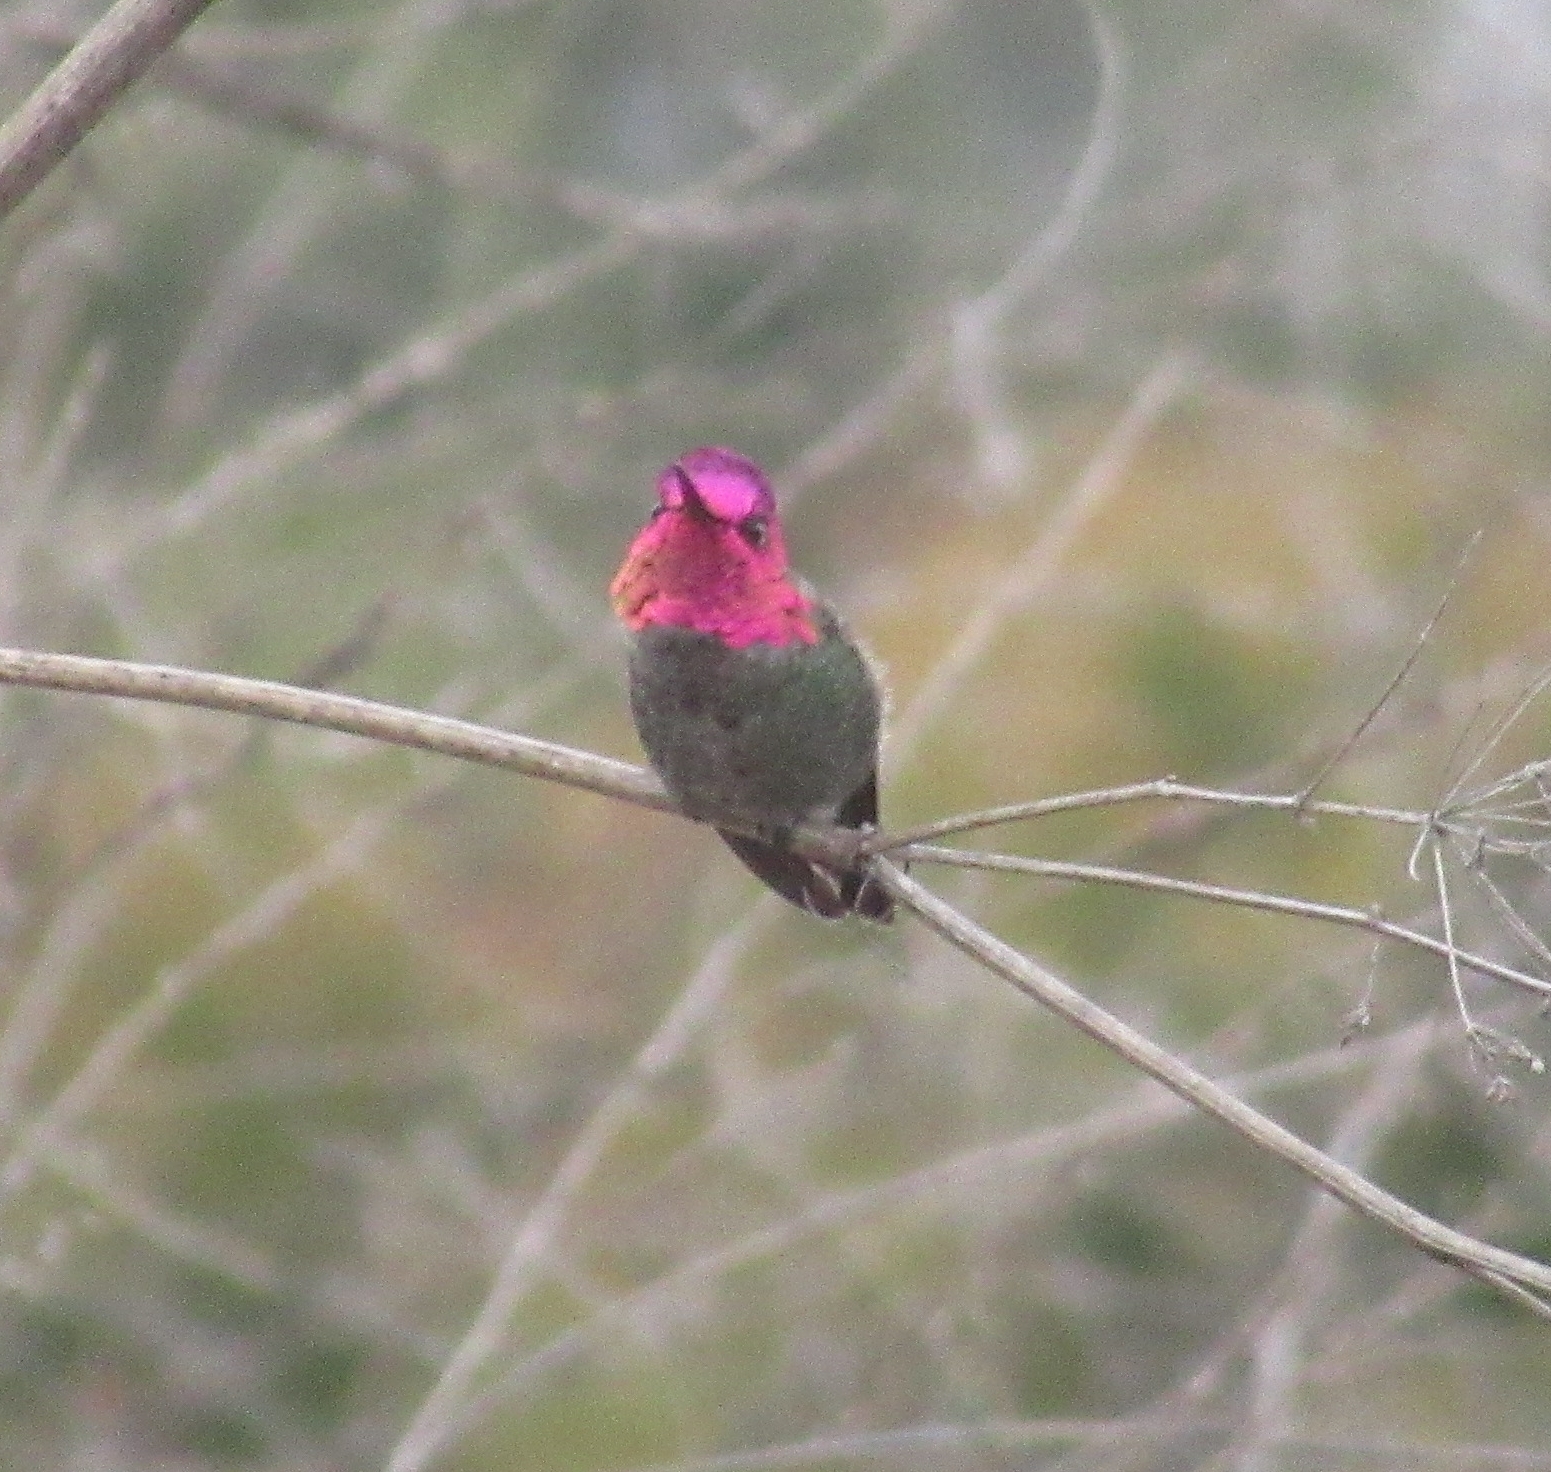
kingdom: Animalia
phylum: Chordata
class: Aves
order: Apodiformes
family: Trochilidae
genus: Calypte
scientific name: Calypte anna
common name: Anna's hummingbird
